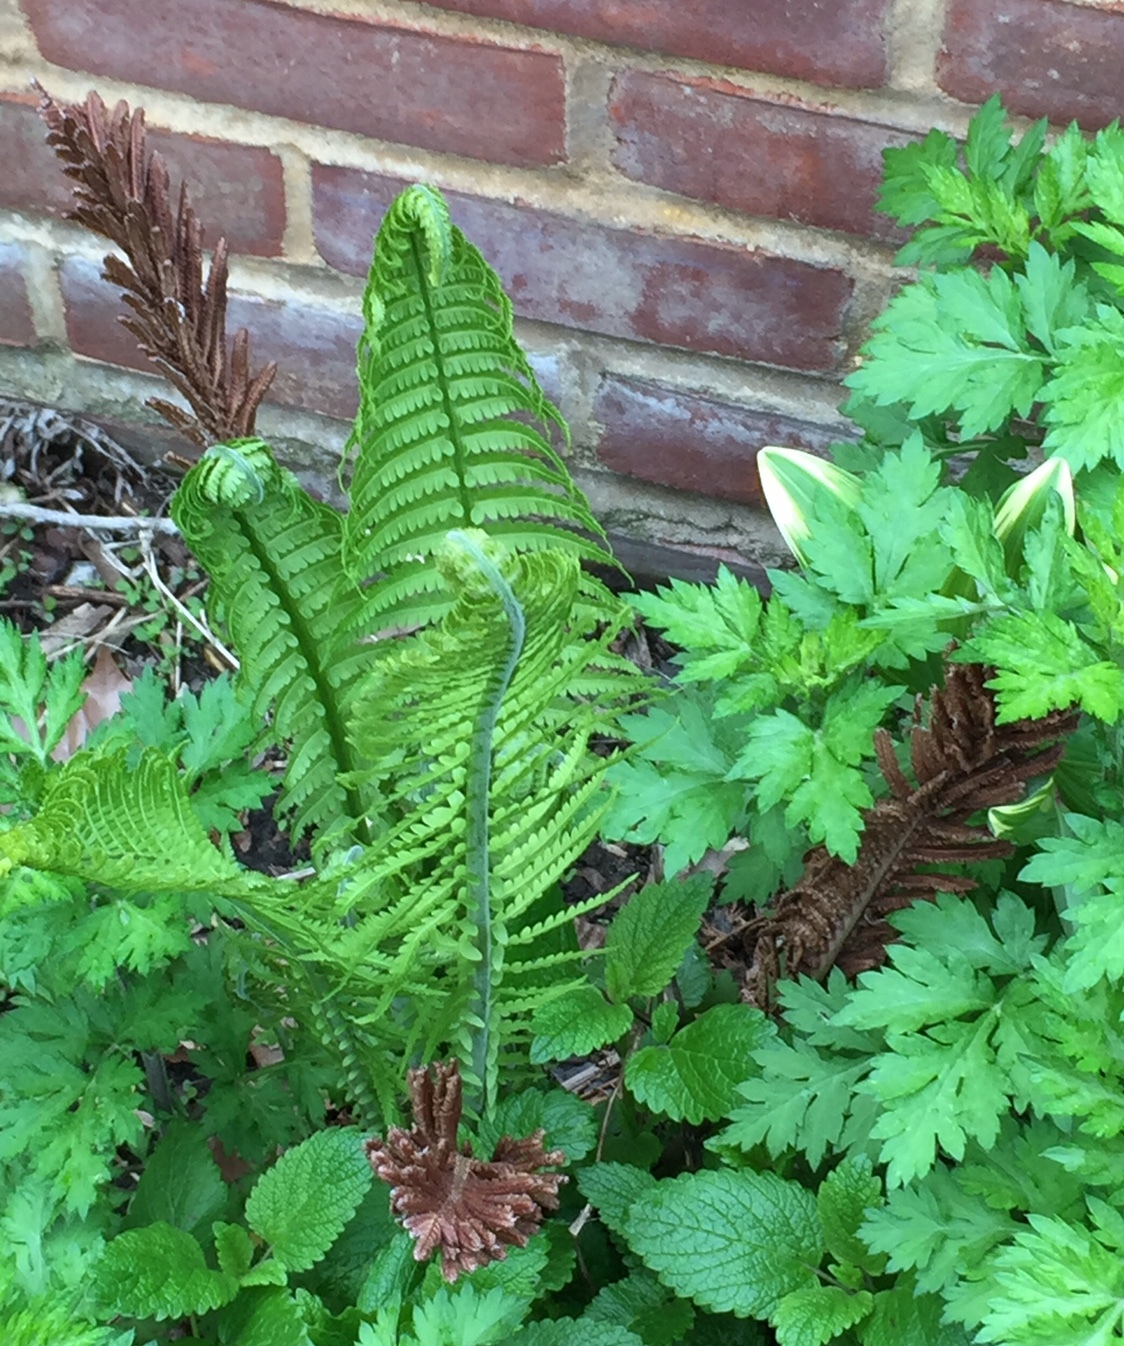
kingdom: Plantae
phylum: Tracheophyta
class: Polypodiopsida
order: Polypodiales
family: Onocleaceae
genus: Matteuccia
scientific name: Matteuccia struthiopteris
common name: Ostrich fern
